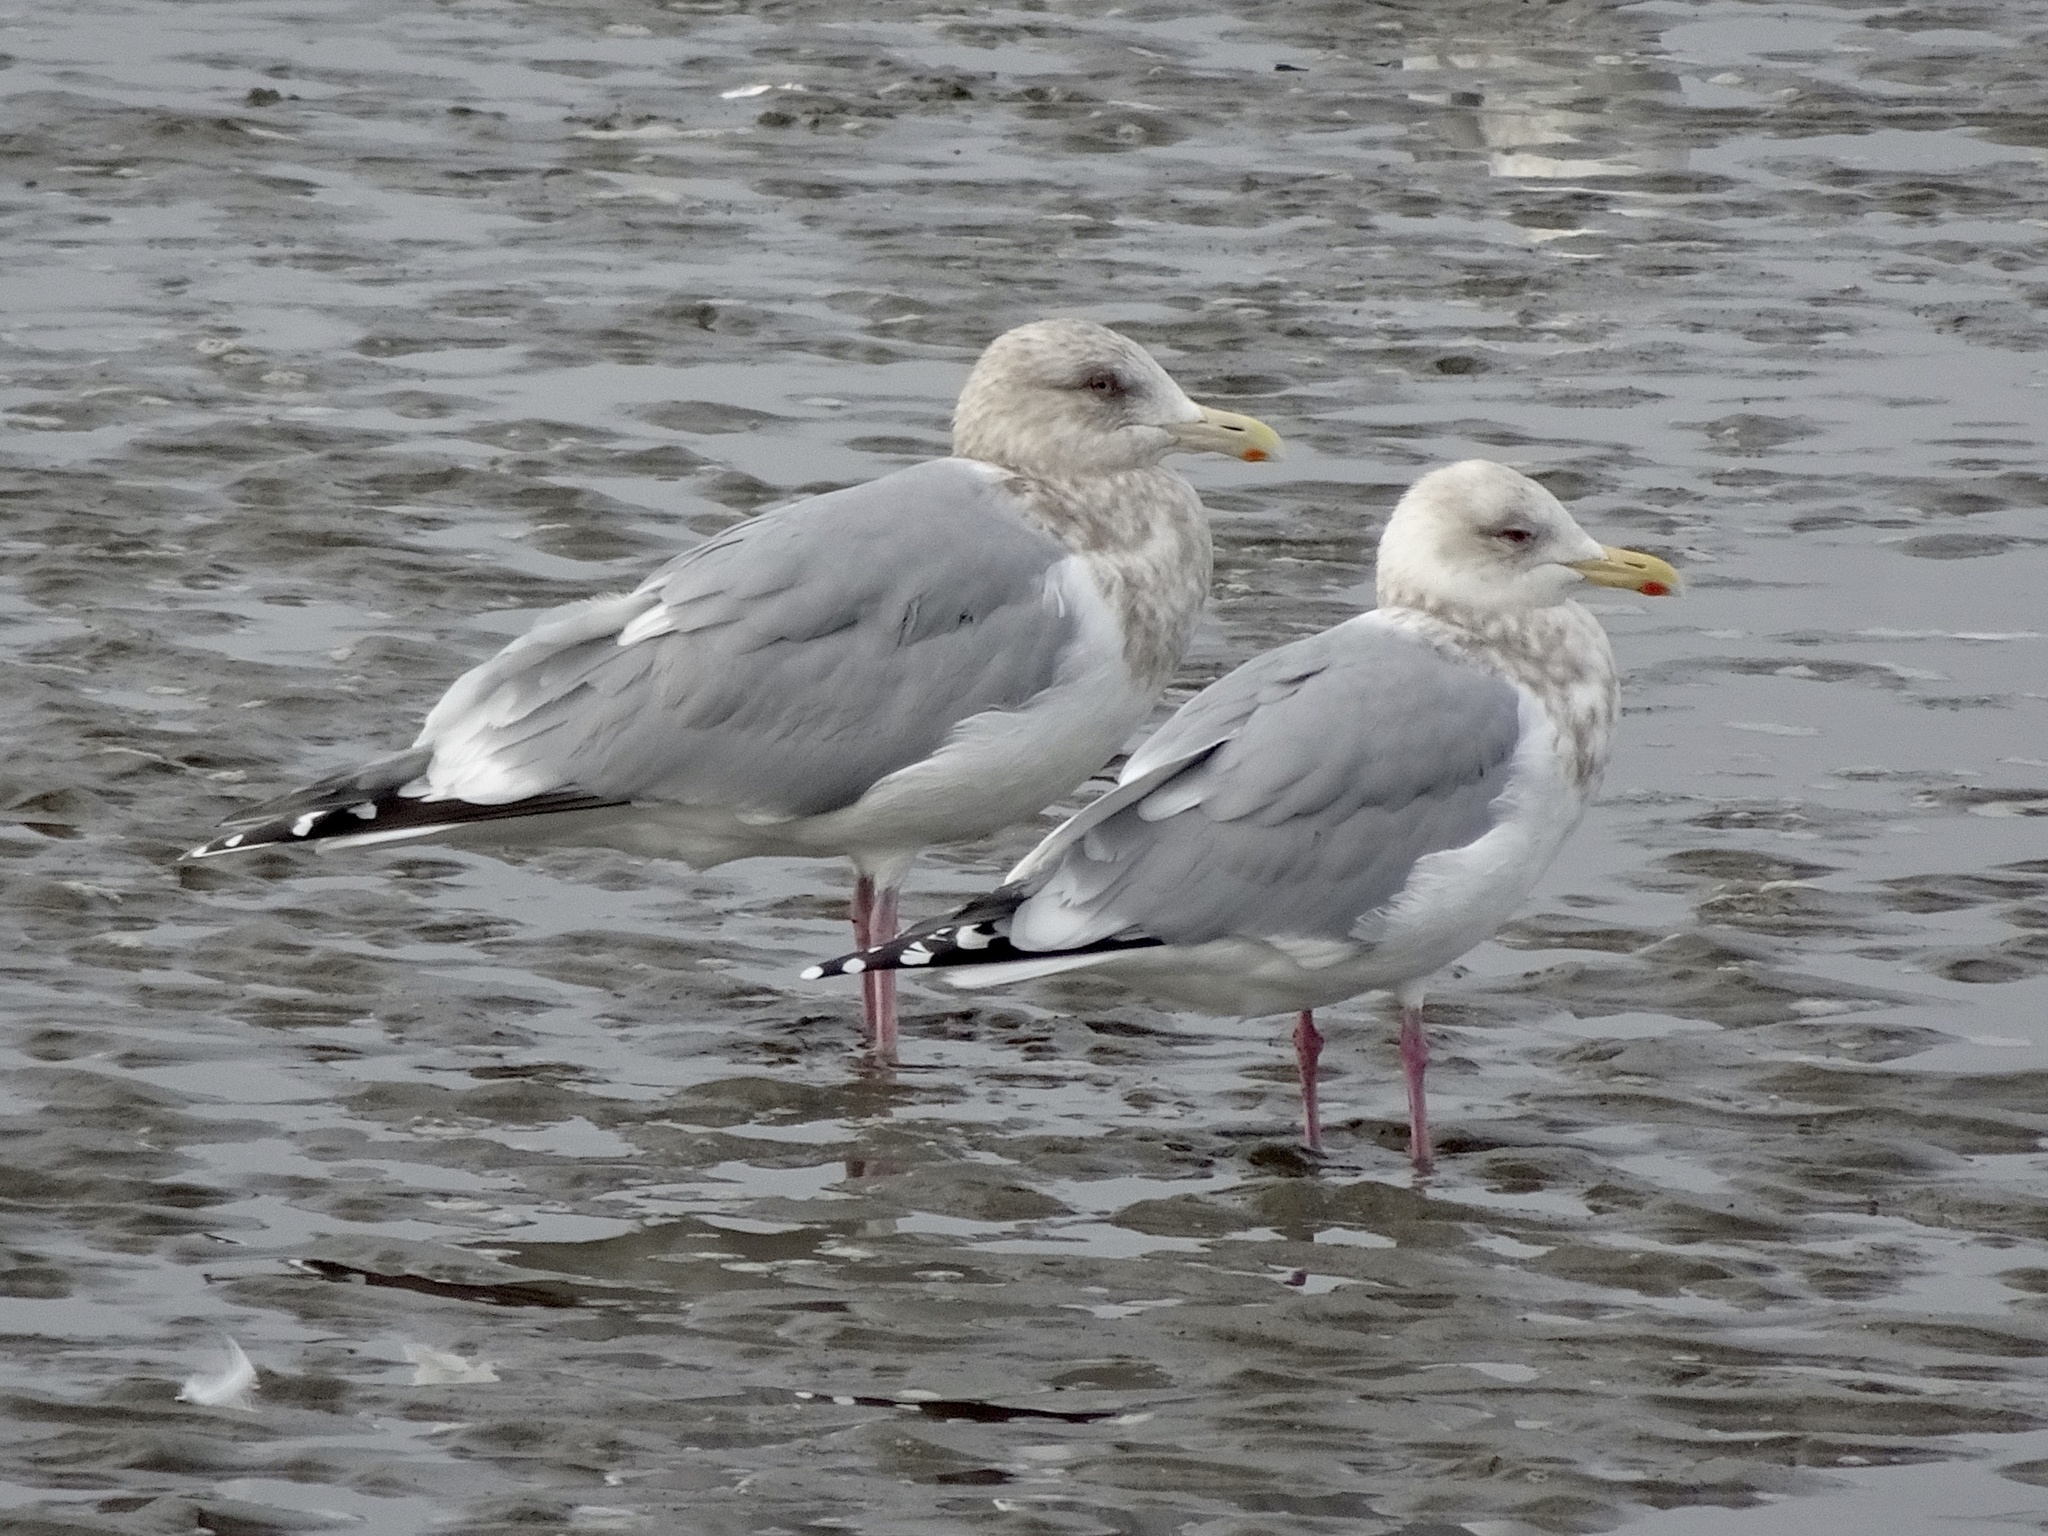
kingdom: Animalia
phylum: Chordata
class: Aves
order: Charadriiformes
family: Laridae
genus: Larus
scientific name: Larus glaucoides
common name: Iceland gull
